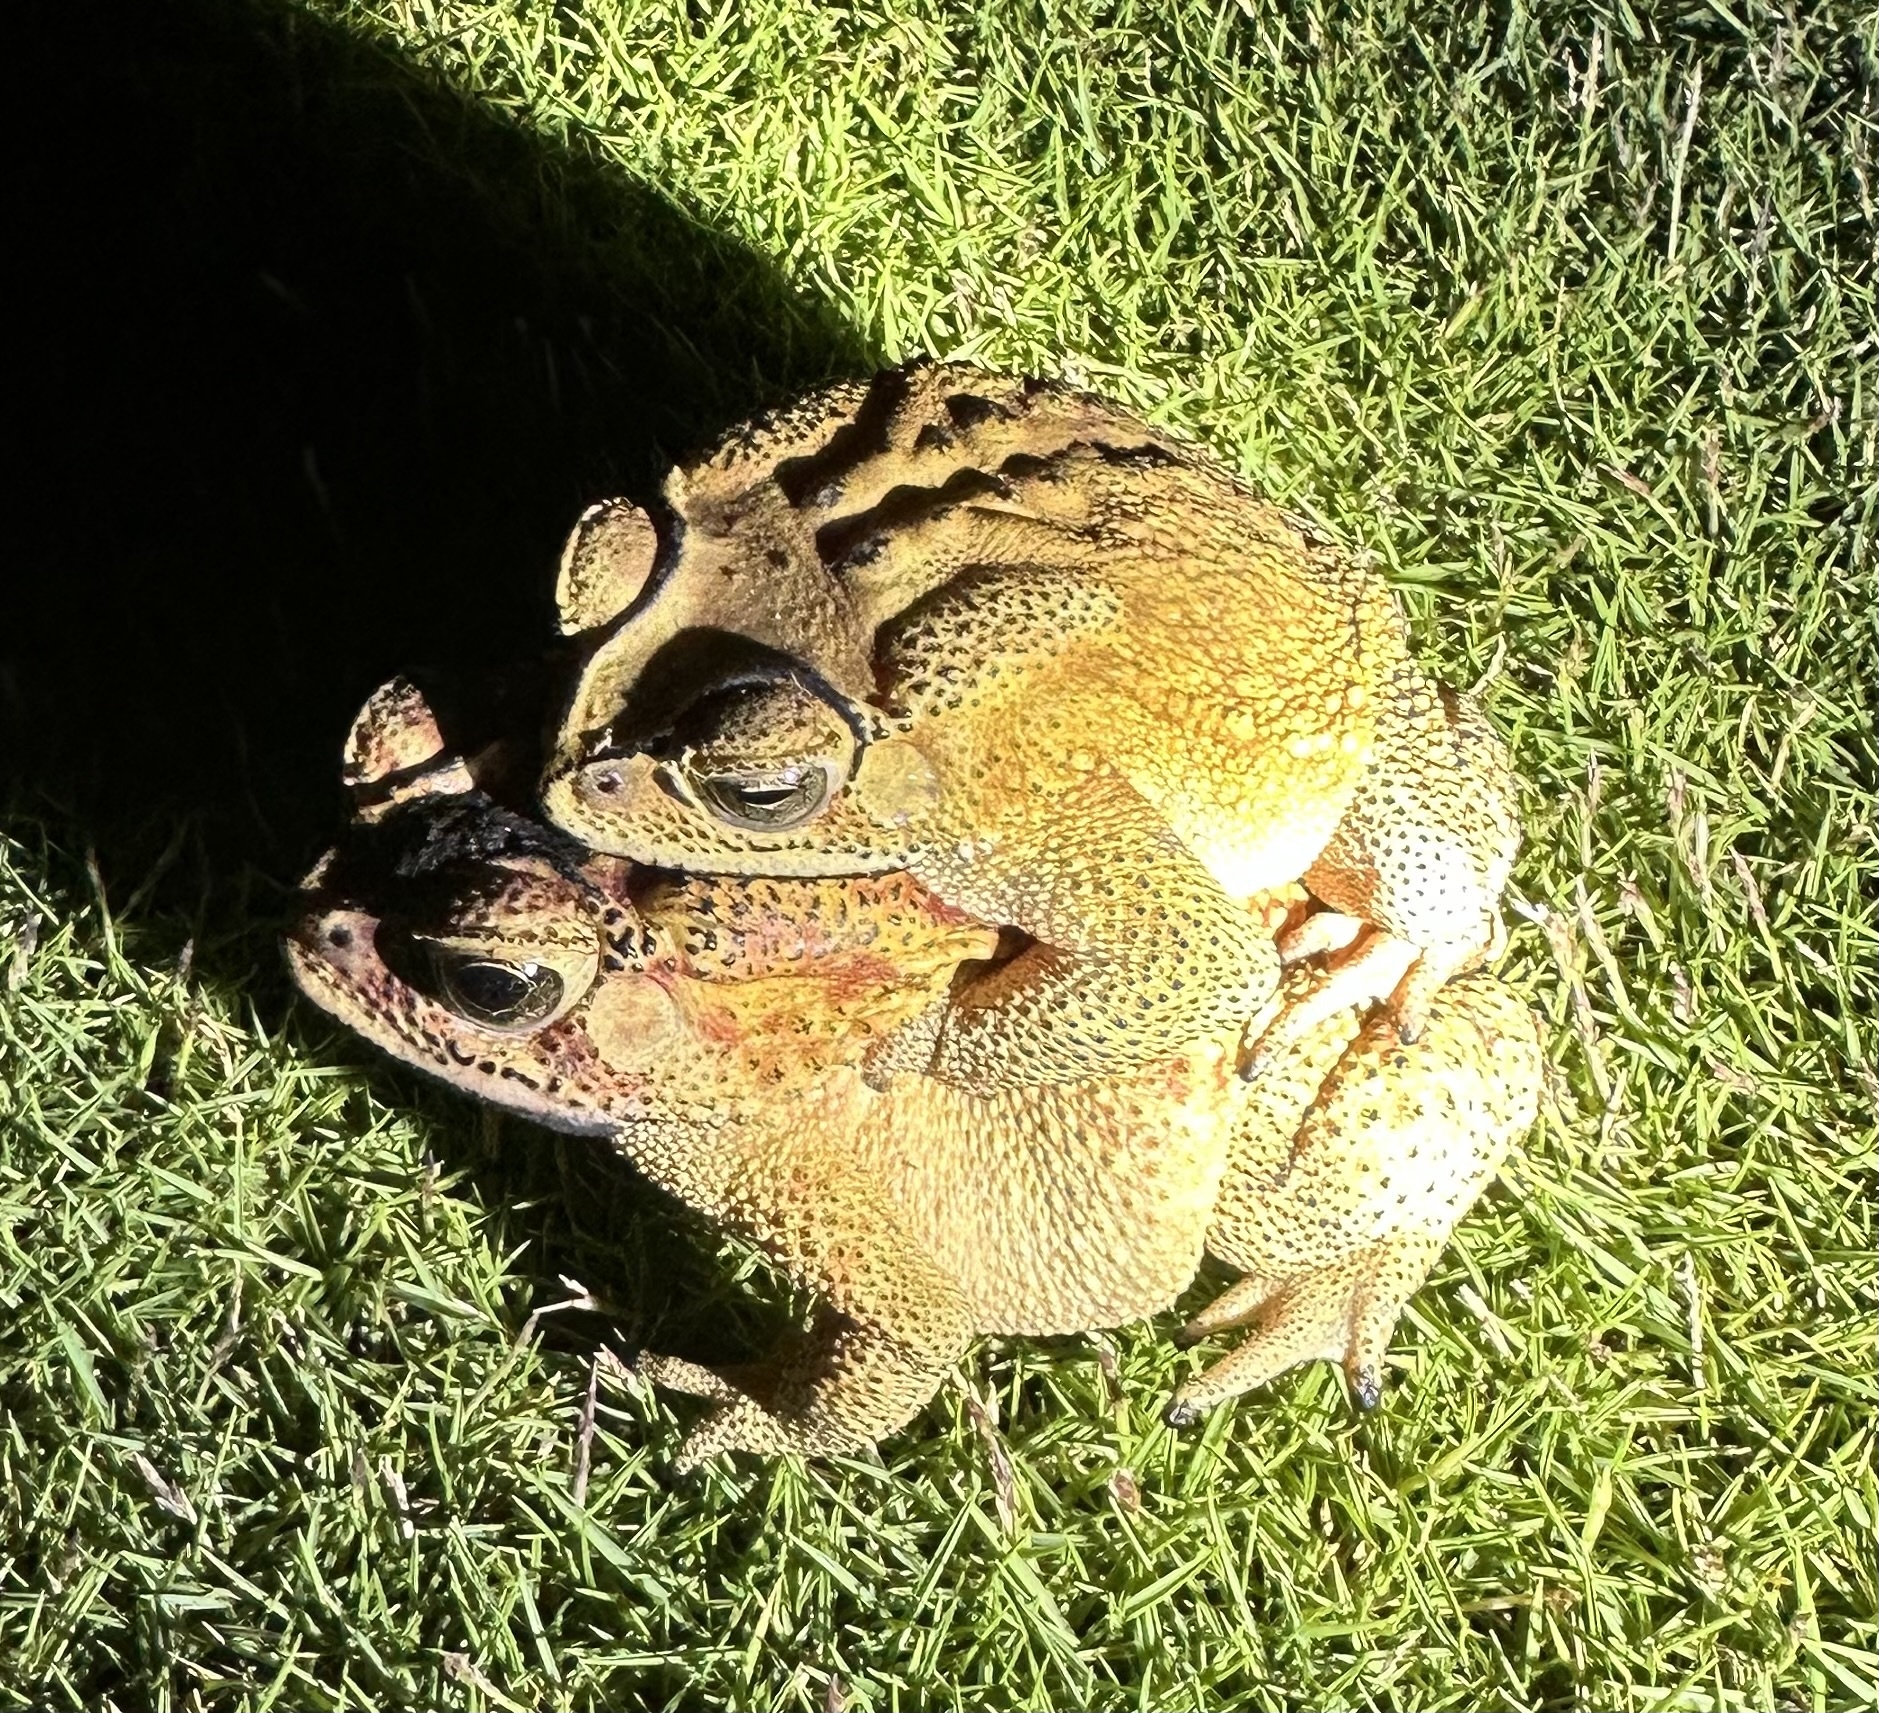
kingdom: Animalia
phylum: Chordata
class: Amphibia
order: Anura
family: Bufonidae
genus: Duttaphrynus
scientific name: Duttaphrynus melanostictus
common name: Common sunda toad
